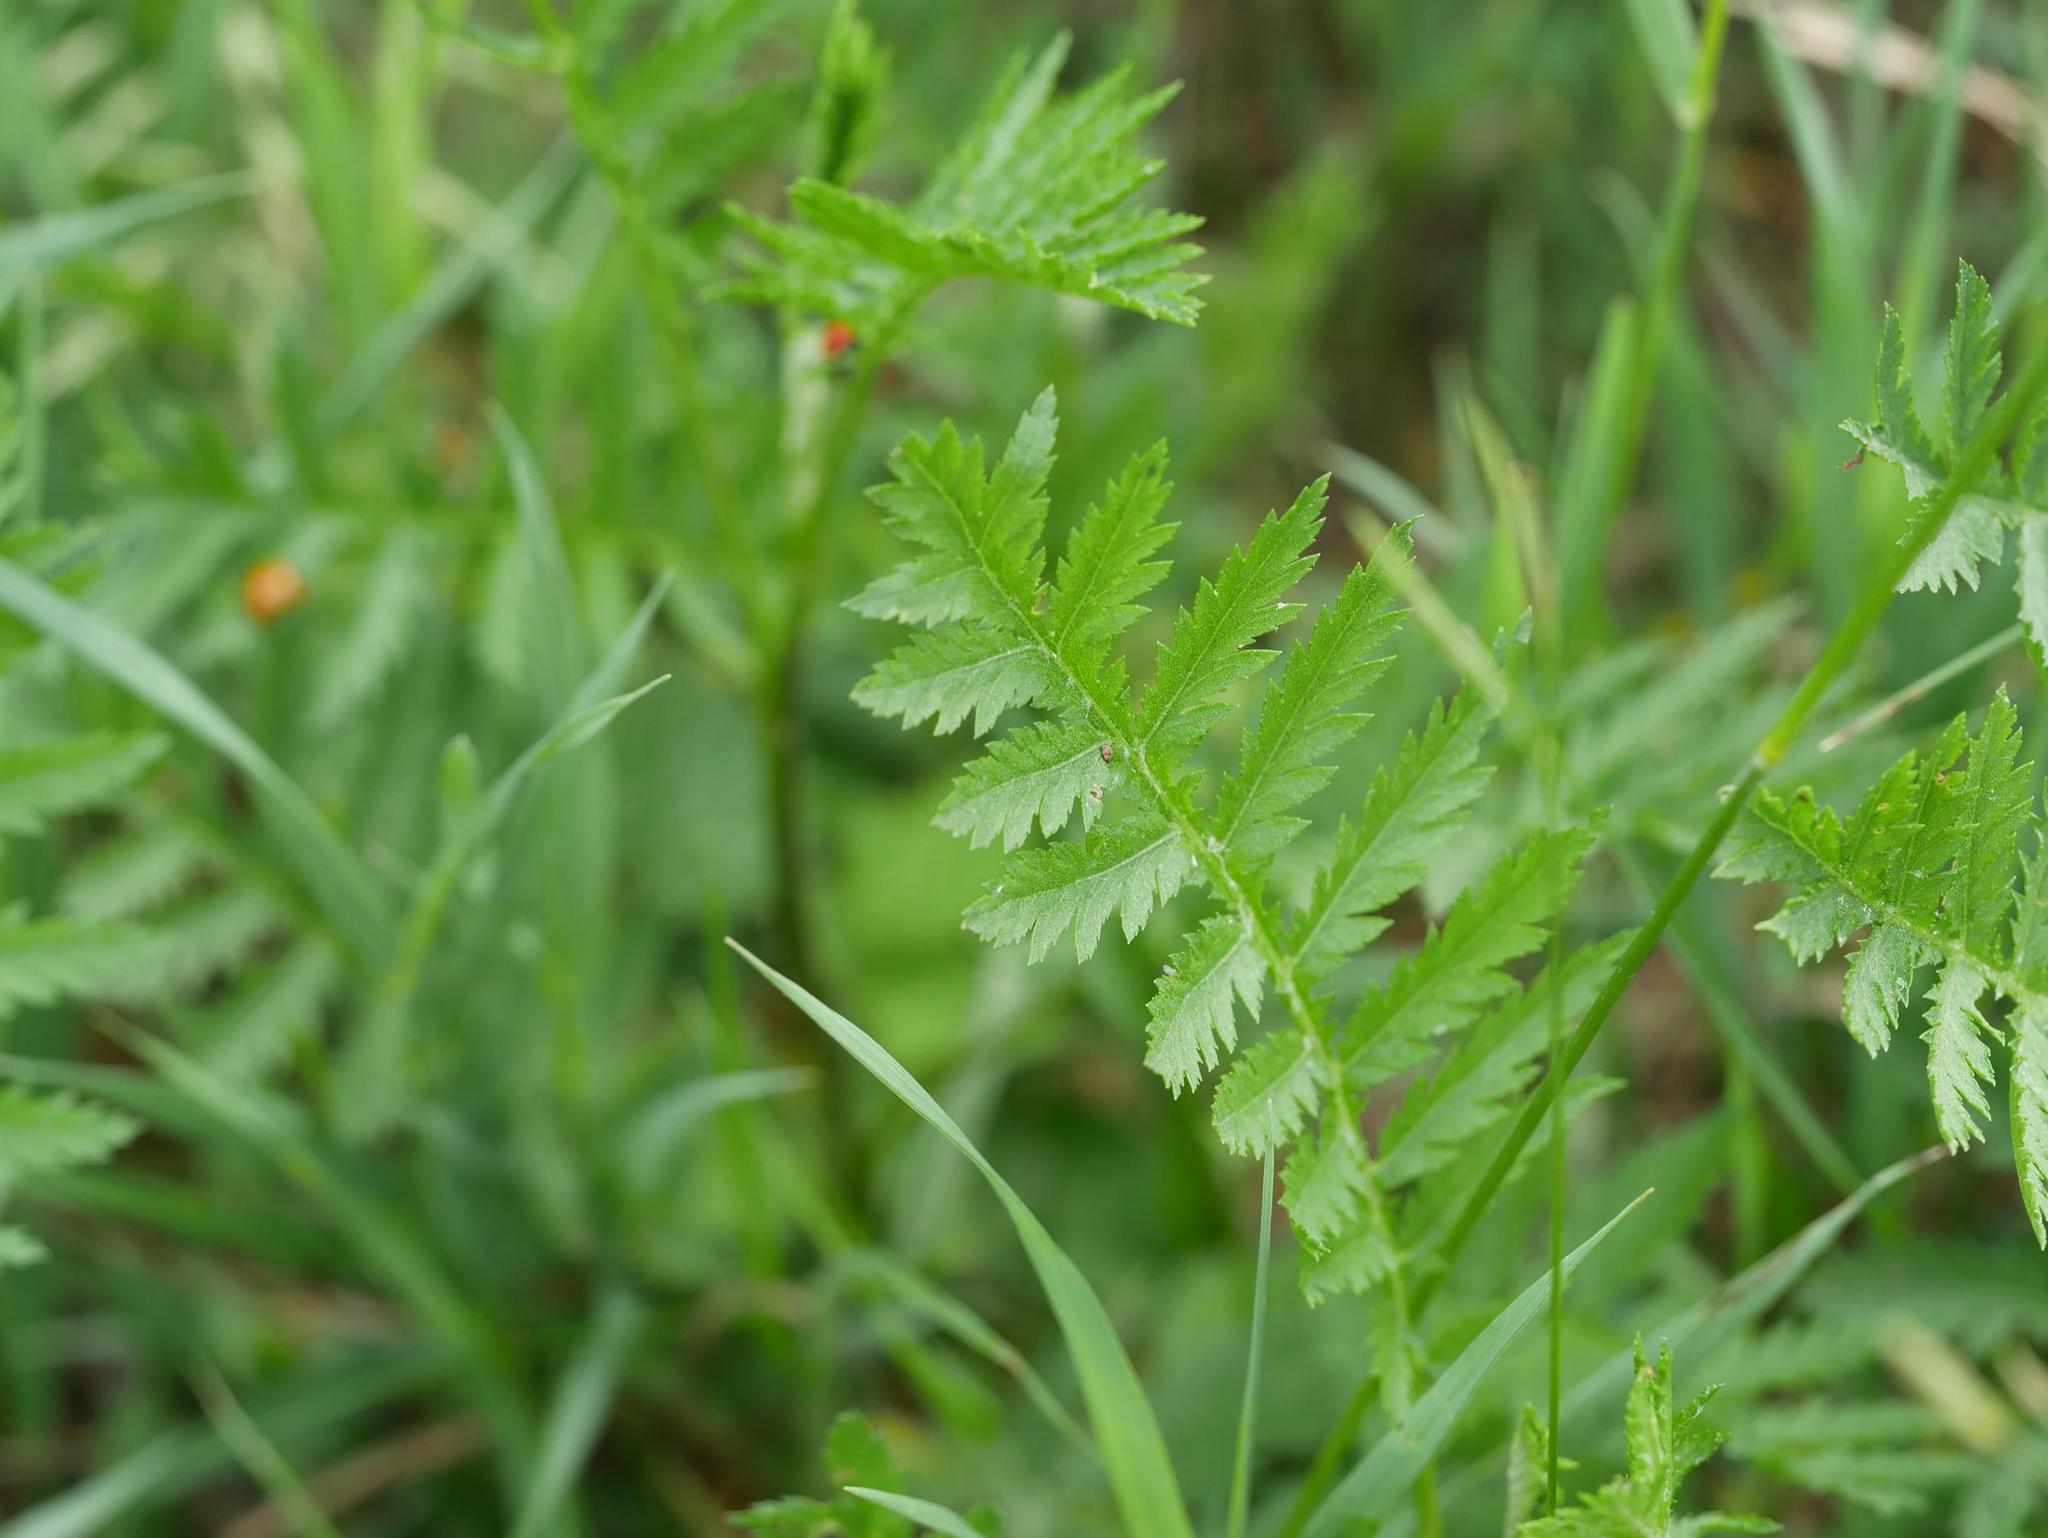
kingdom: Plantae
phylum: Tracheophyta
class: Magnoliopsida
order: Asterales
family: Asteraceae
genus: Tanacetum
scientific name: Tanacetum vulgare
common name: Common tansy
